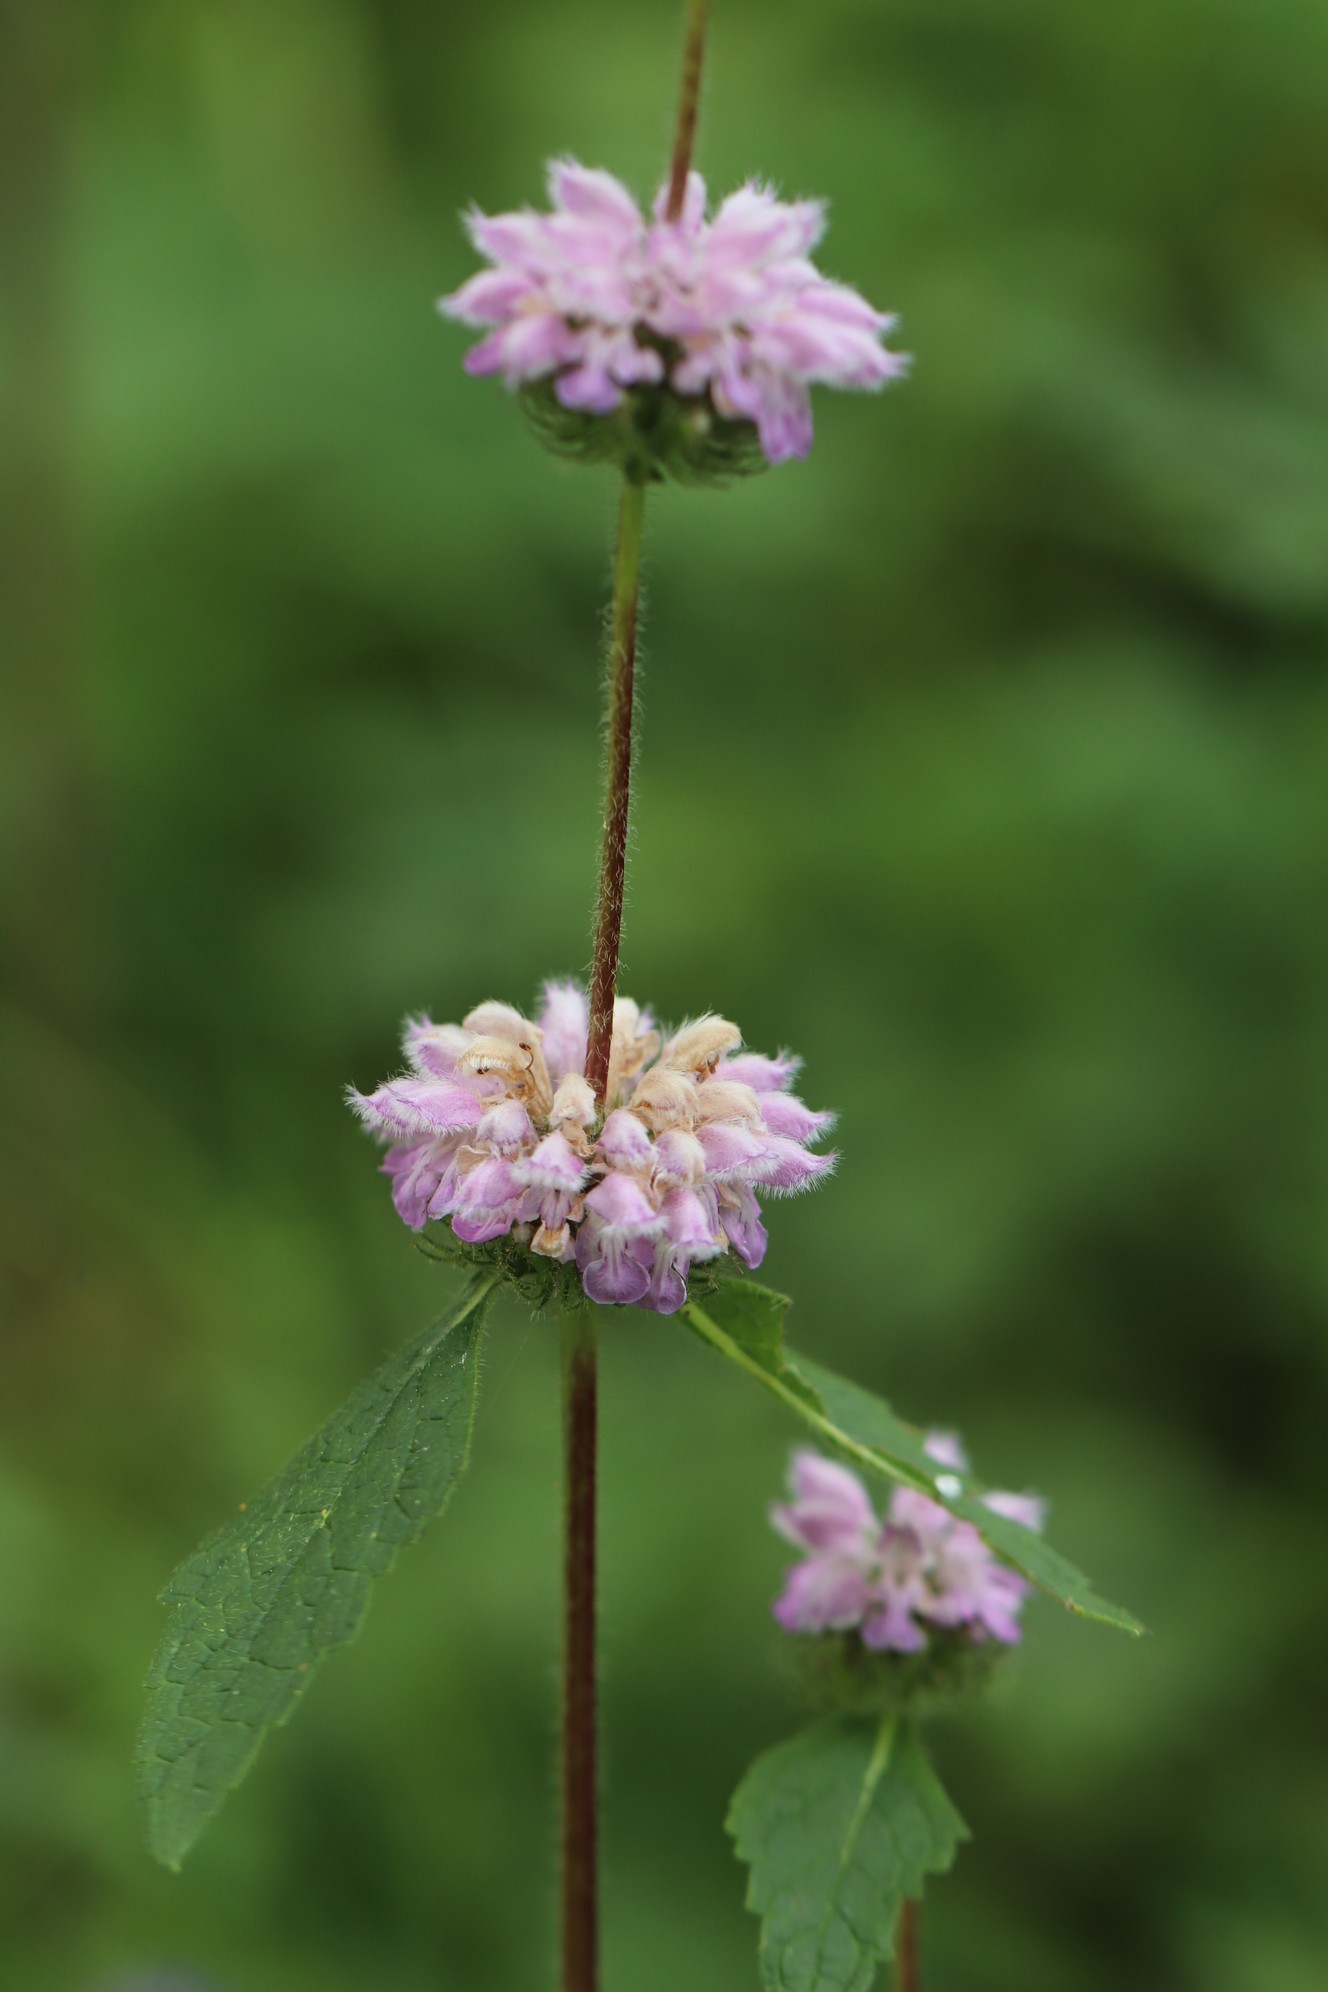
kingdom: Plantae
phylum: Tracheophyta
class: Magnoliopsida
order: Lamiales
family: Lamiaceae
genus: Phlomoides
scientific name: Phlomoides tuberosa
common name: Tuberous jerusalem sage
